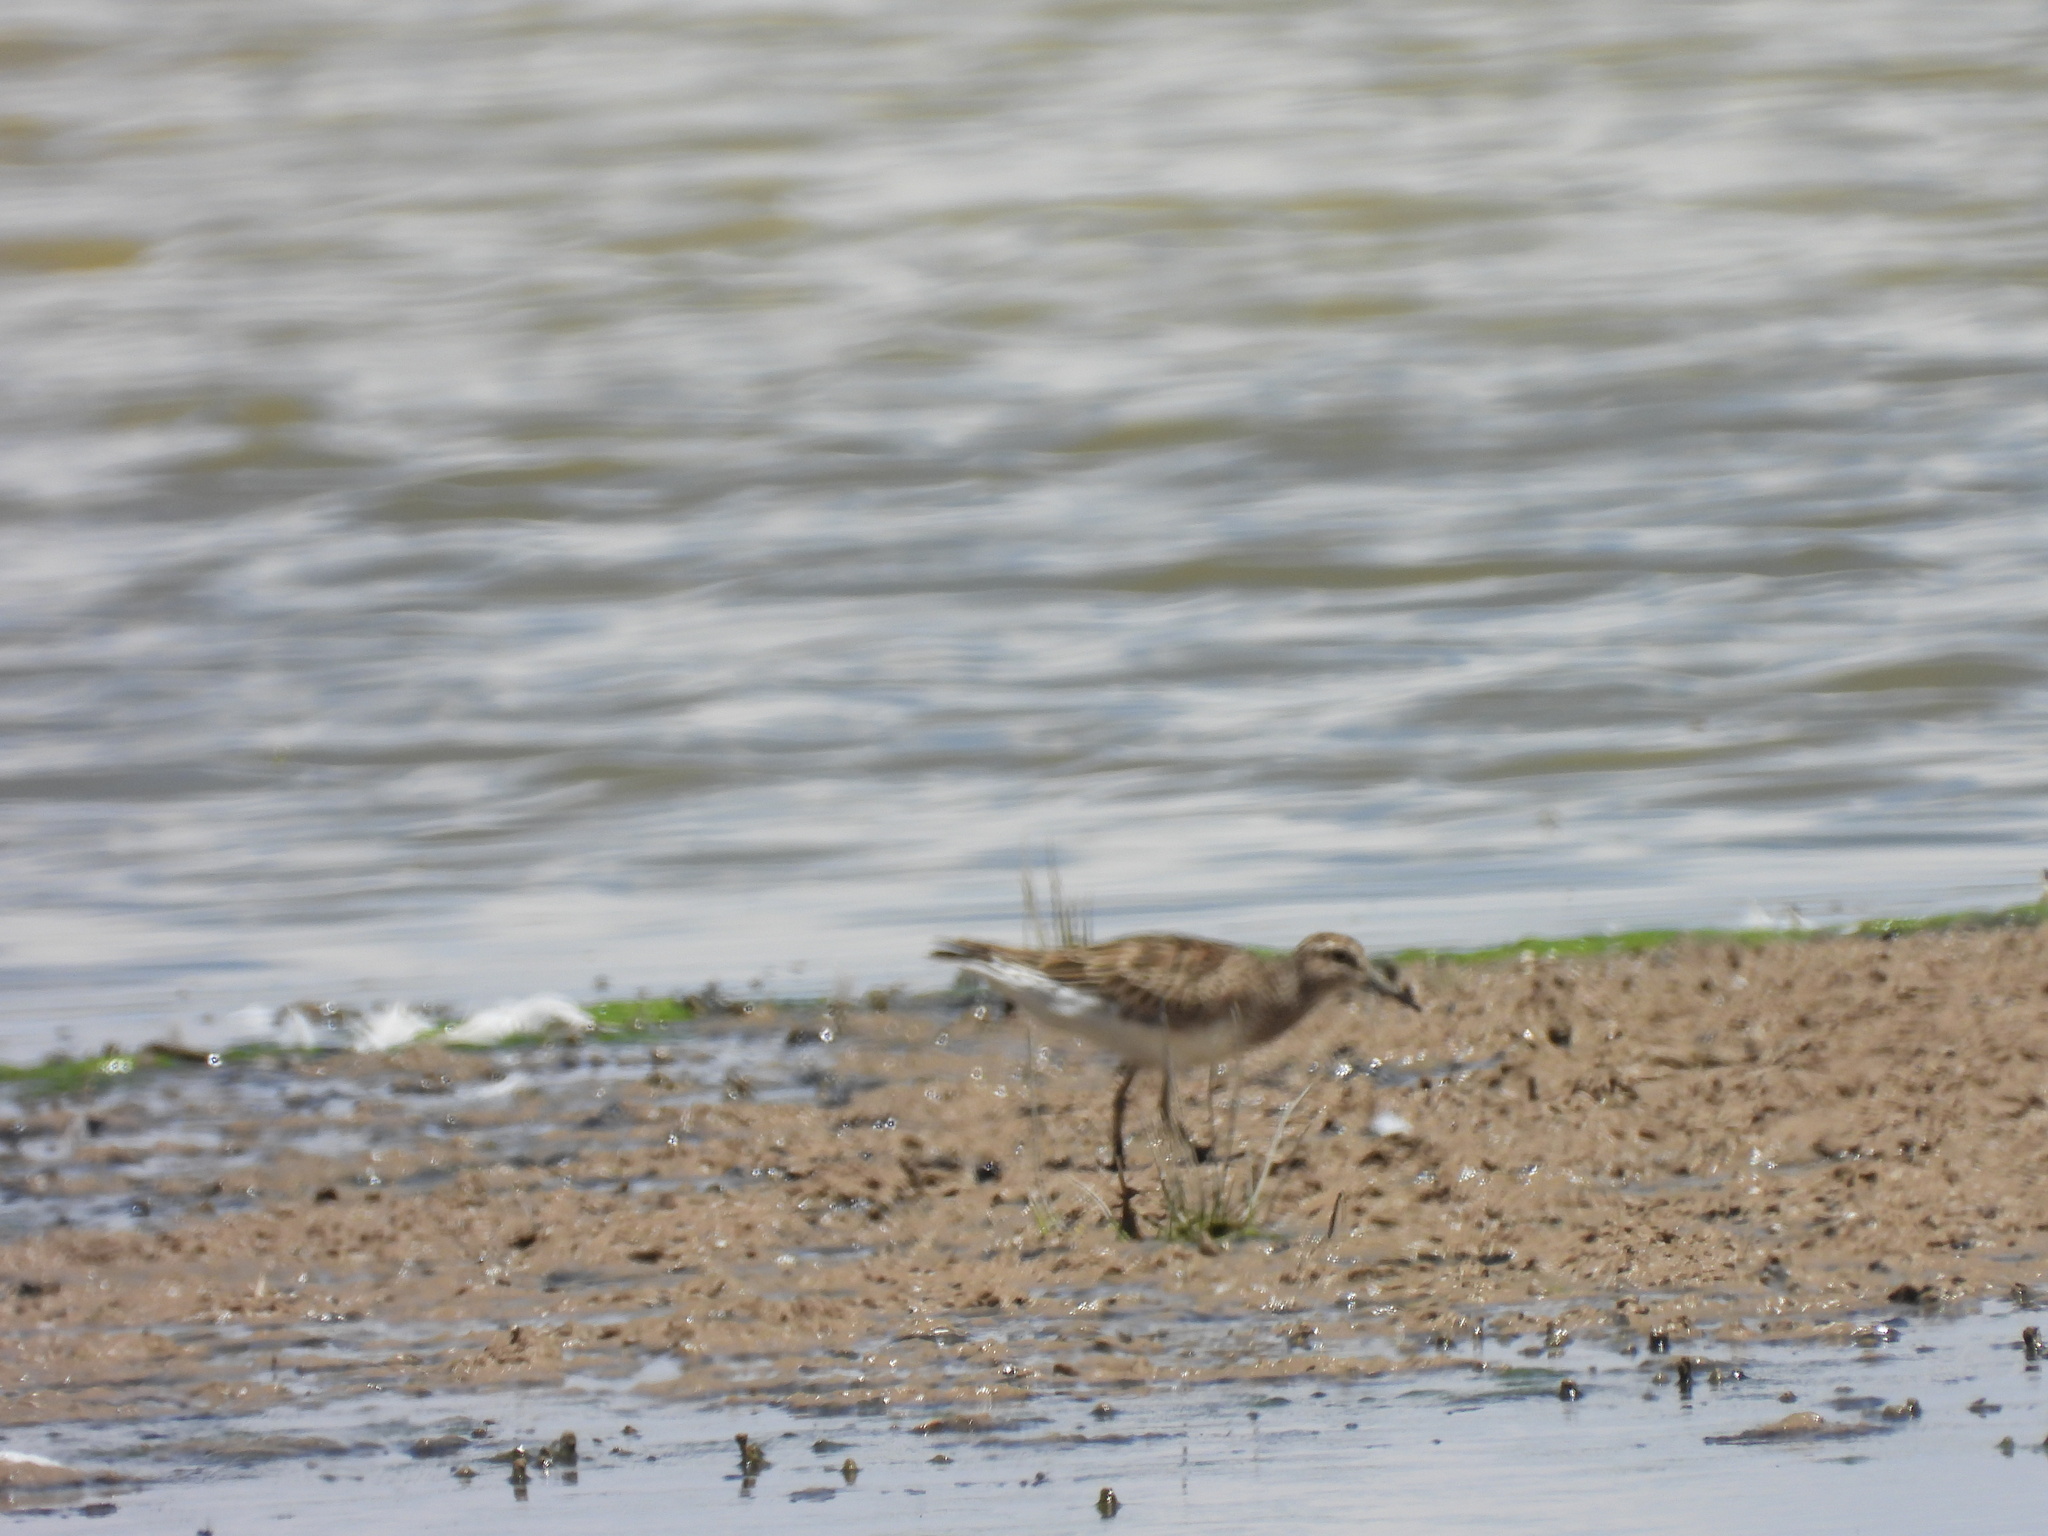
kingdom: Animalia
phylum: Chordata
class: Aves
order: Charadriiformes
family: Scolopacidae
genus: Calidris
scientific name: Calidris melanotos
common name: Pectoral sandpiper
